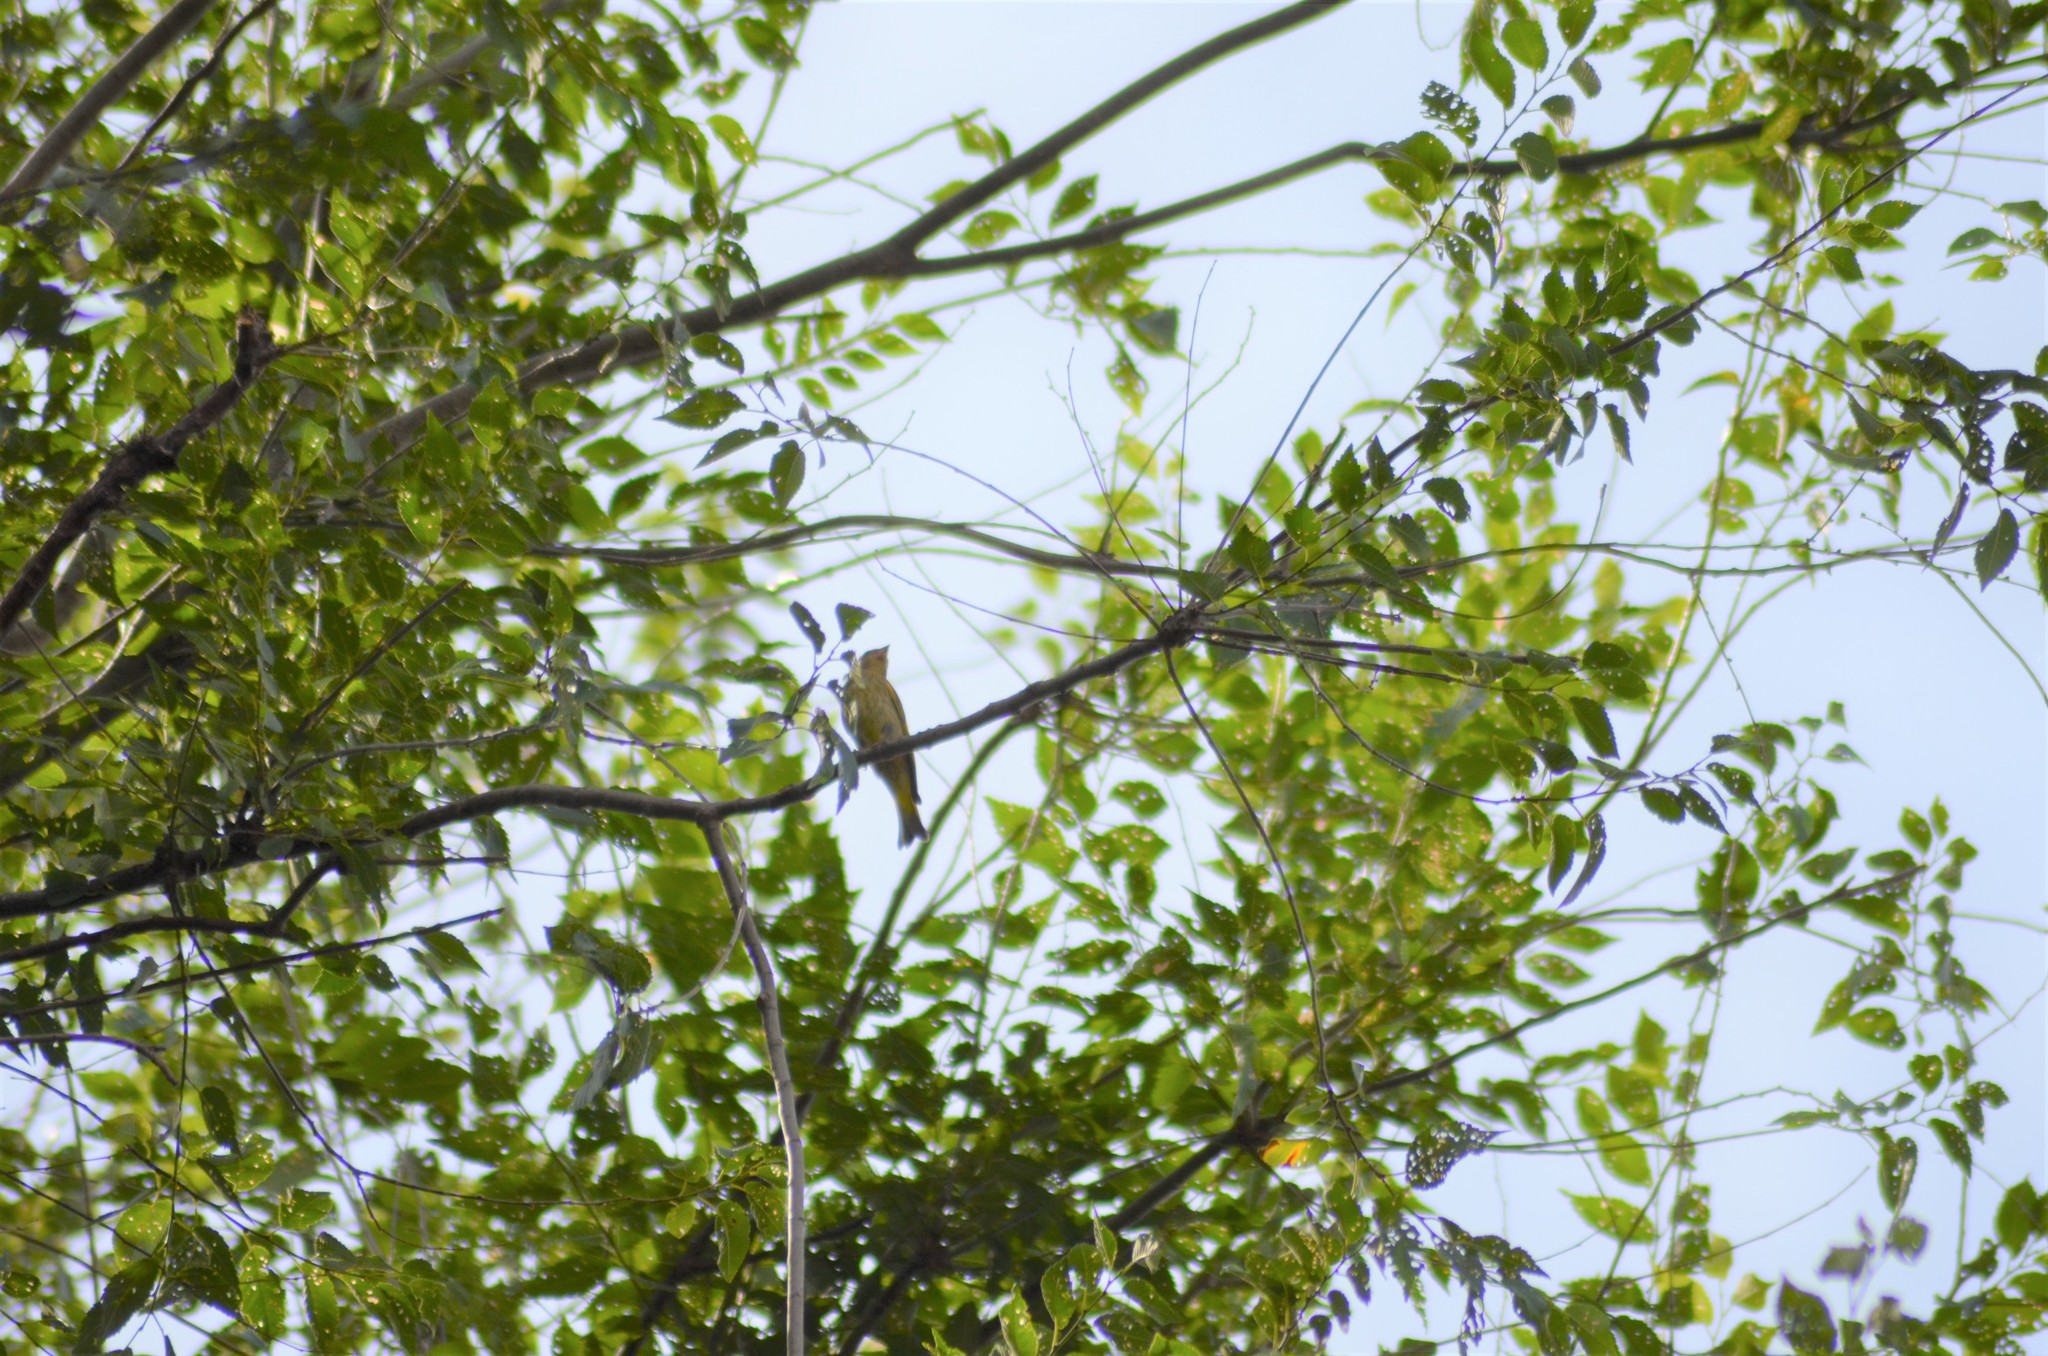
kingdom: Plantae
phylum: Tracheophyta
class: Liliopsida
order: Poales
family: Poaceae
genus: Chloris
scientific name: Chloris chloris
